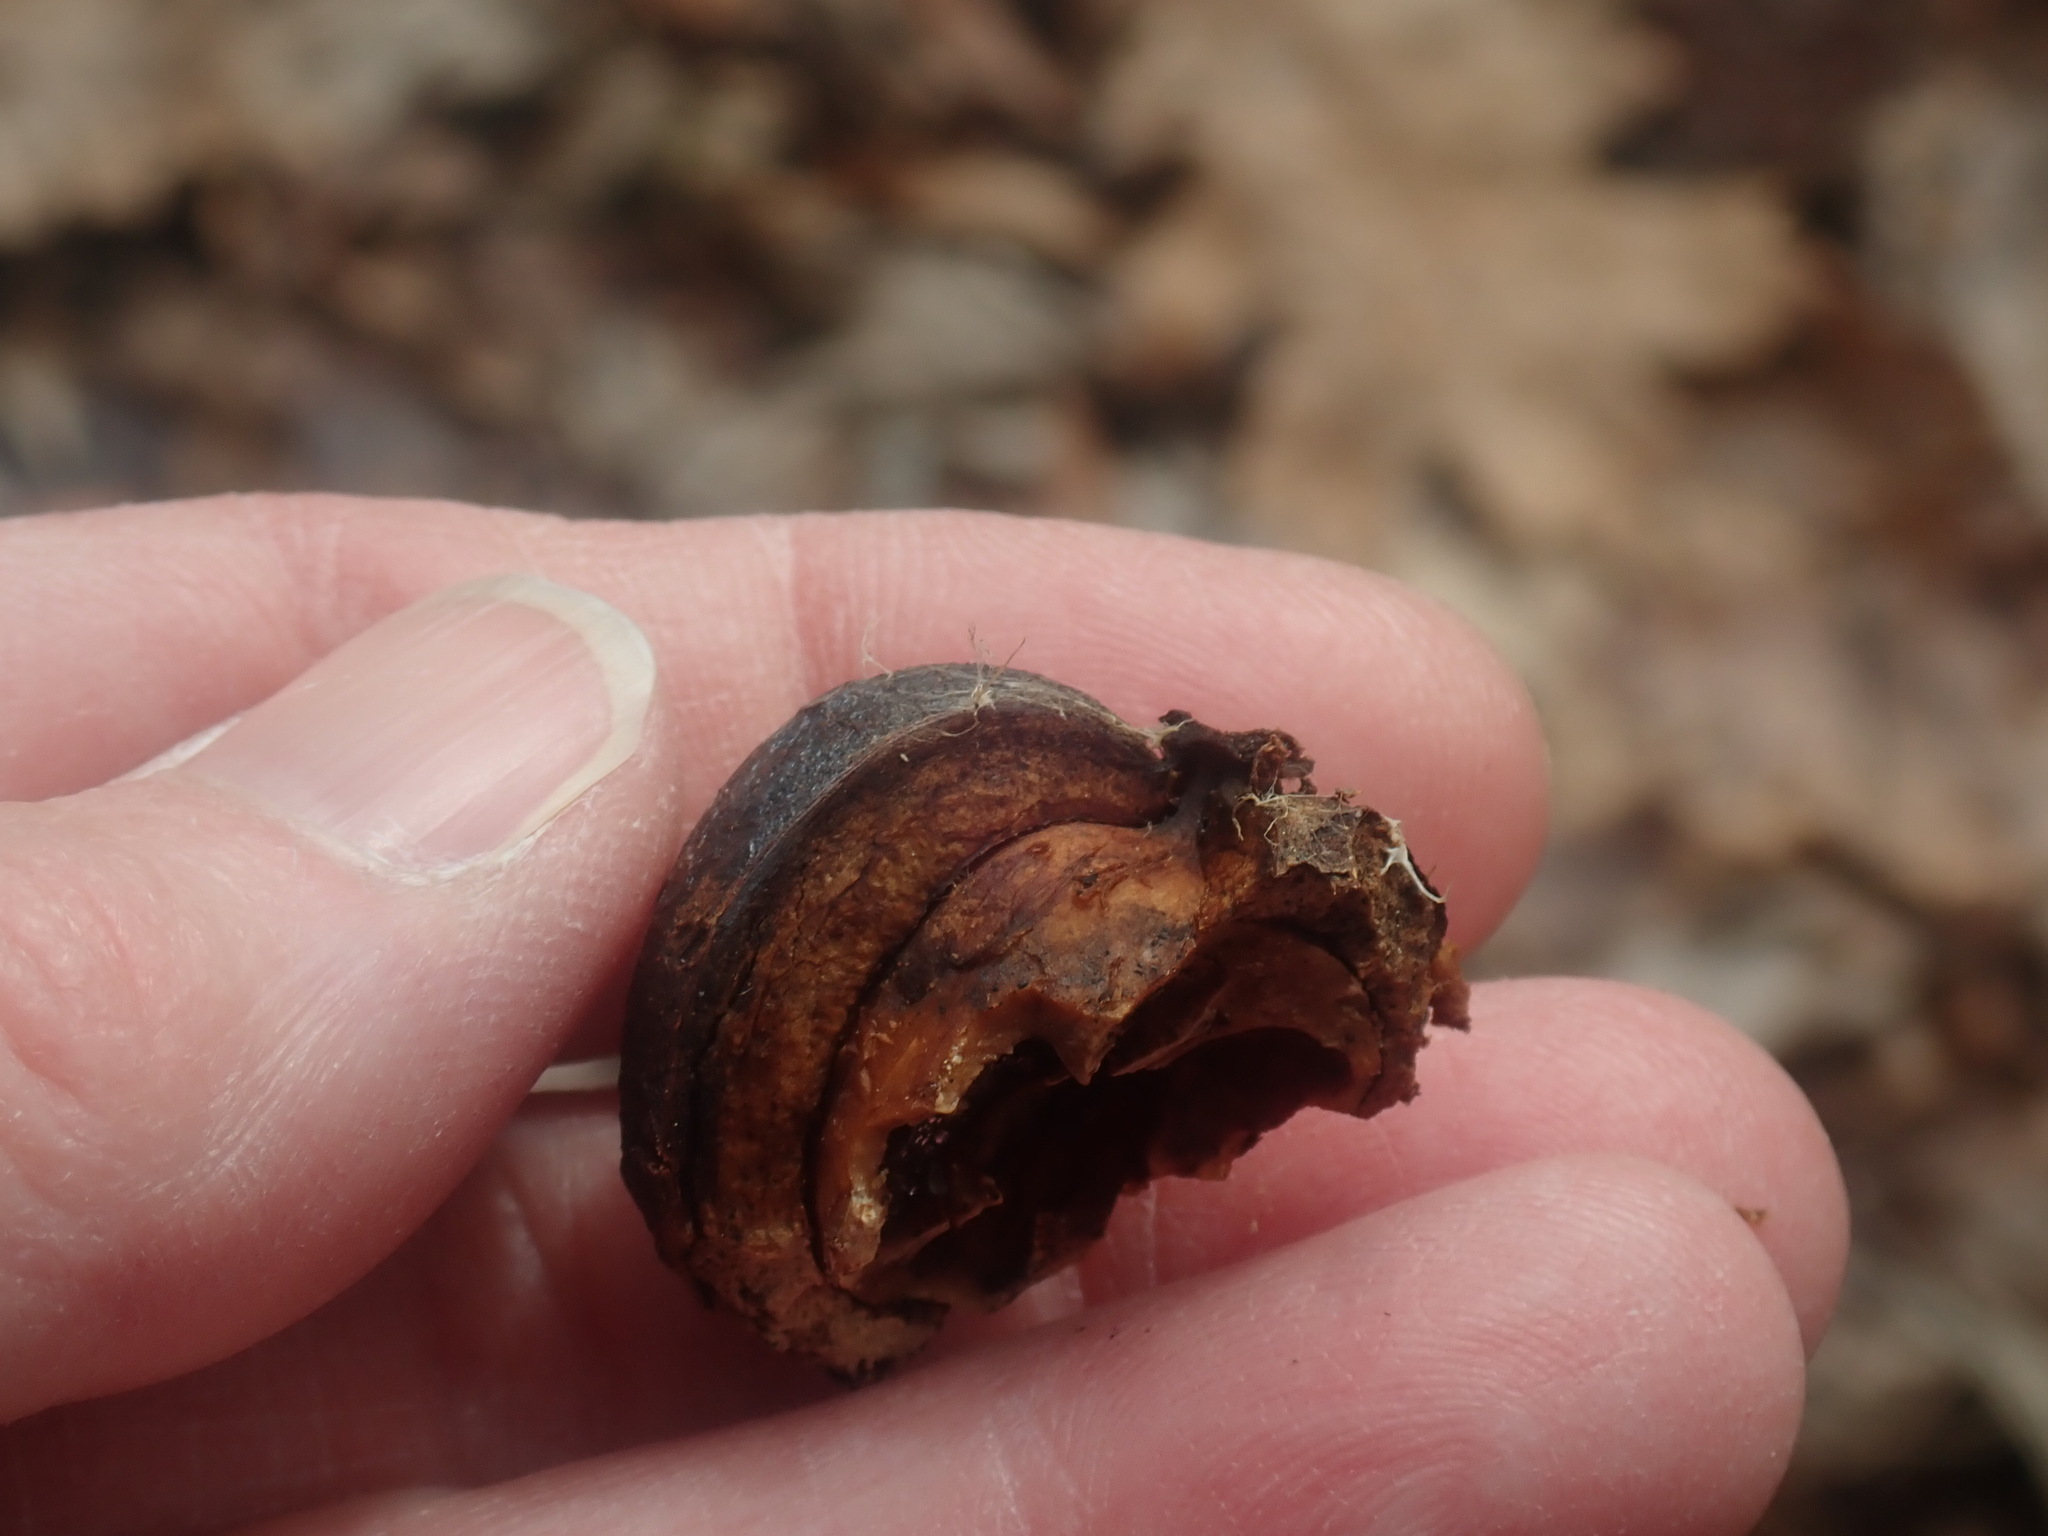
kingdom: Plantae
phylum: Tracheophyta
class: Magnoliopsida
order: Fagales
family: Juglandaceae
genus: Carya
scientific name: Carya ovata
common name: Shagbark hickory
